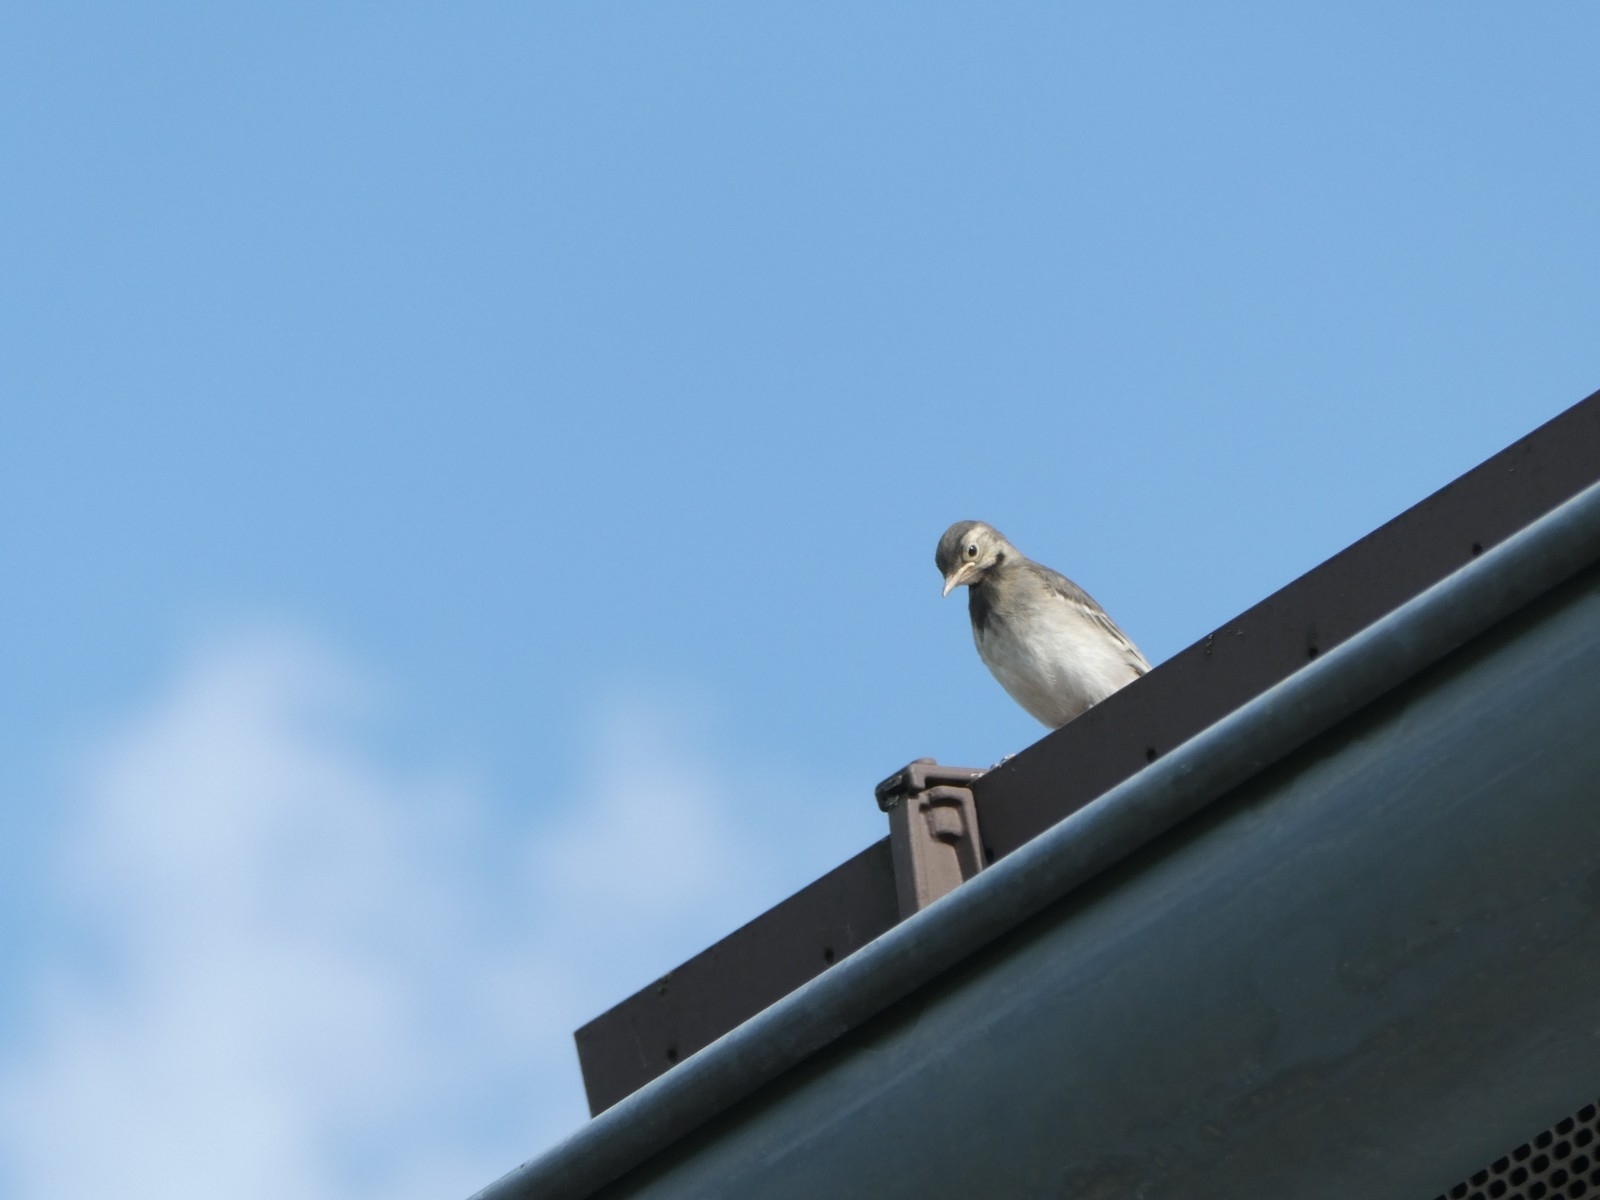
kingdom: Animalia
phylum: Chordata
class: Aves
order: Passeriformes
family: Motacillidae
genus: Motacilla
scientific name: Motacilla alba
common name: White wagtail
